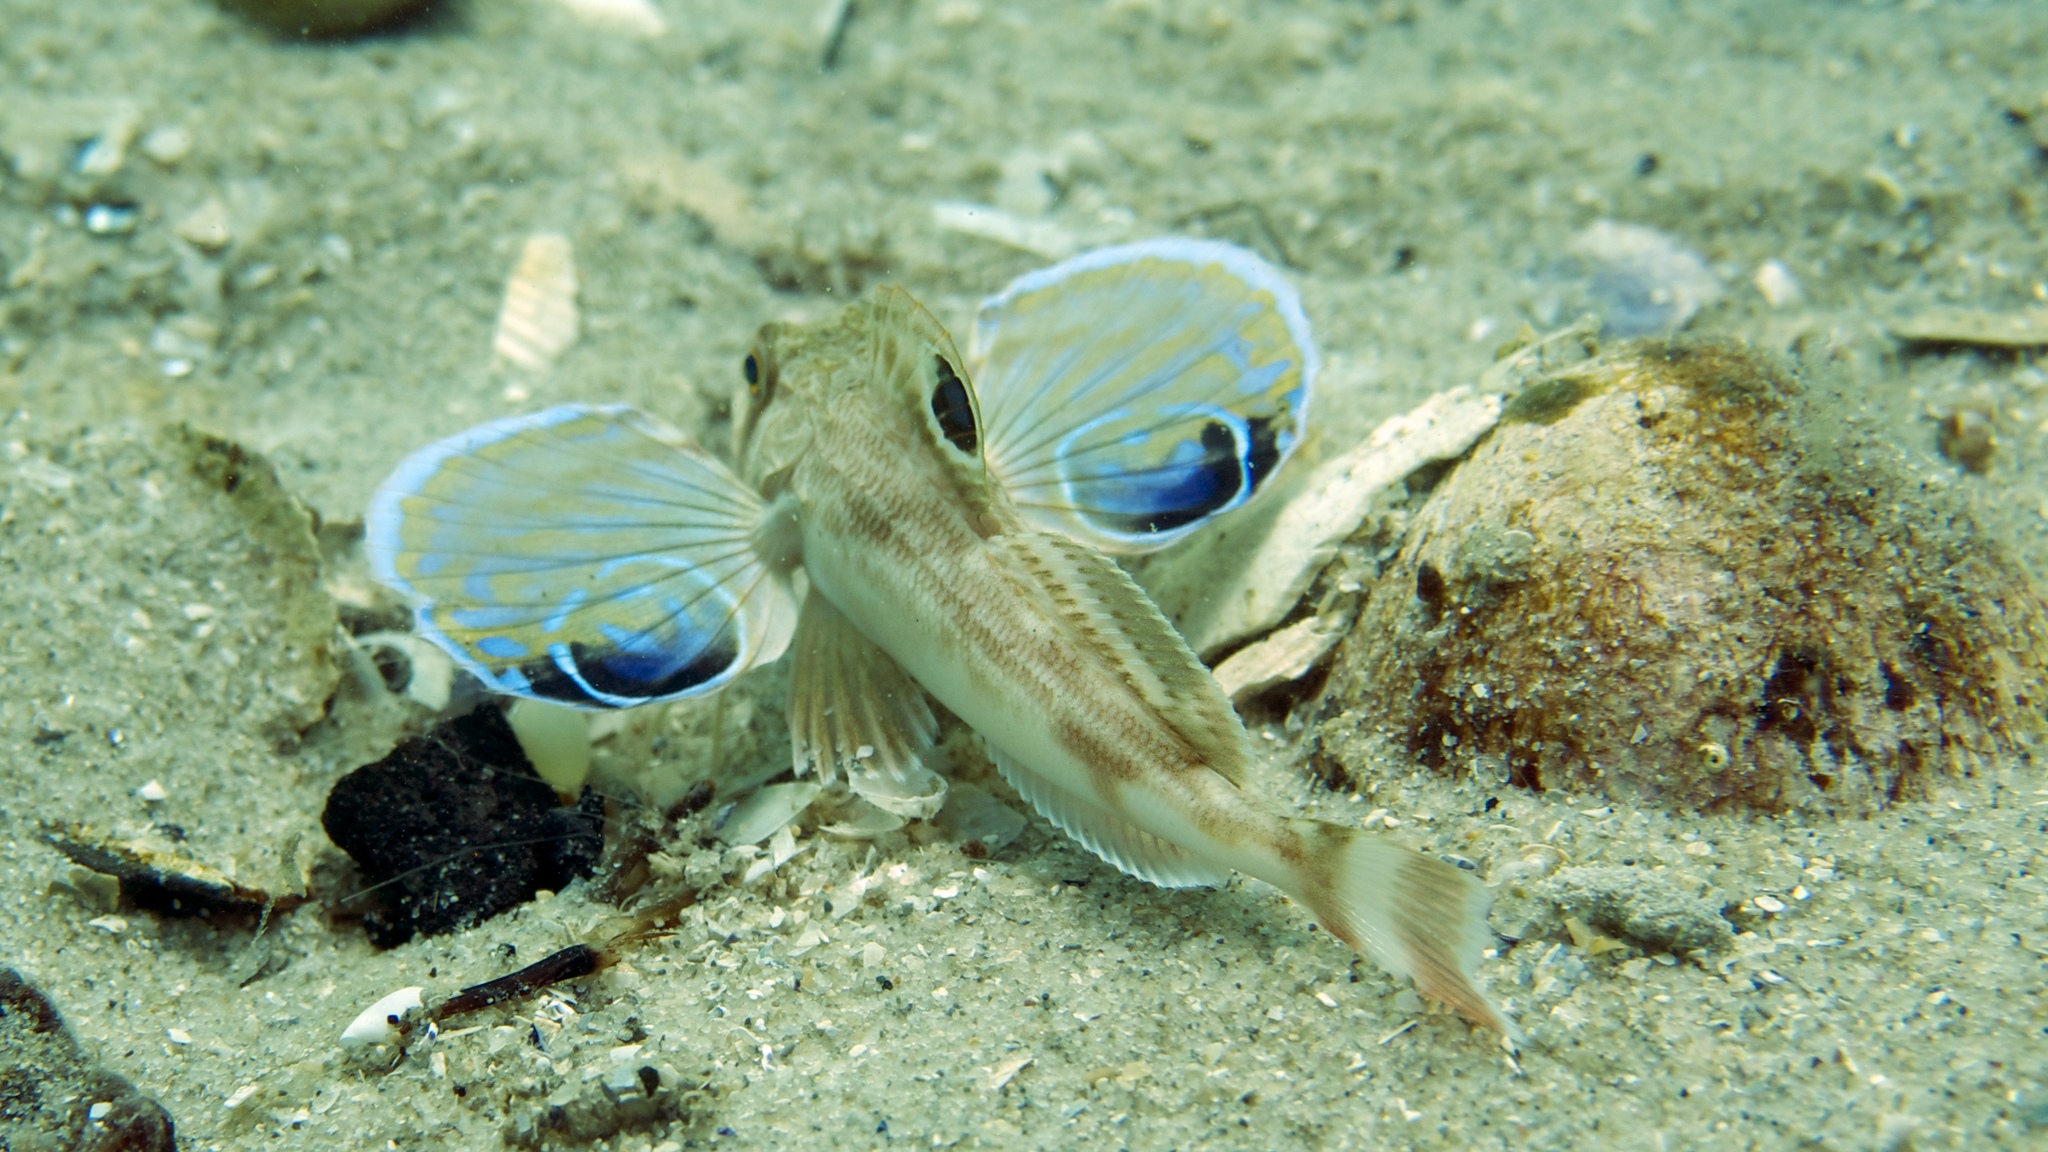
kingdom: Animalia
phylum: Chordata
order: Scorpaeniformes
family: Triglidae
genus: Lepidotrigla
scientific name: Lepidotrigla vanessa
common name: Butterfly gurnard
